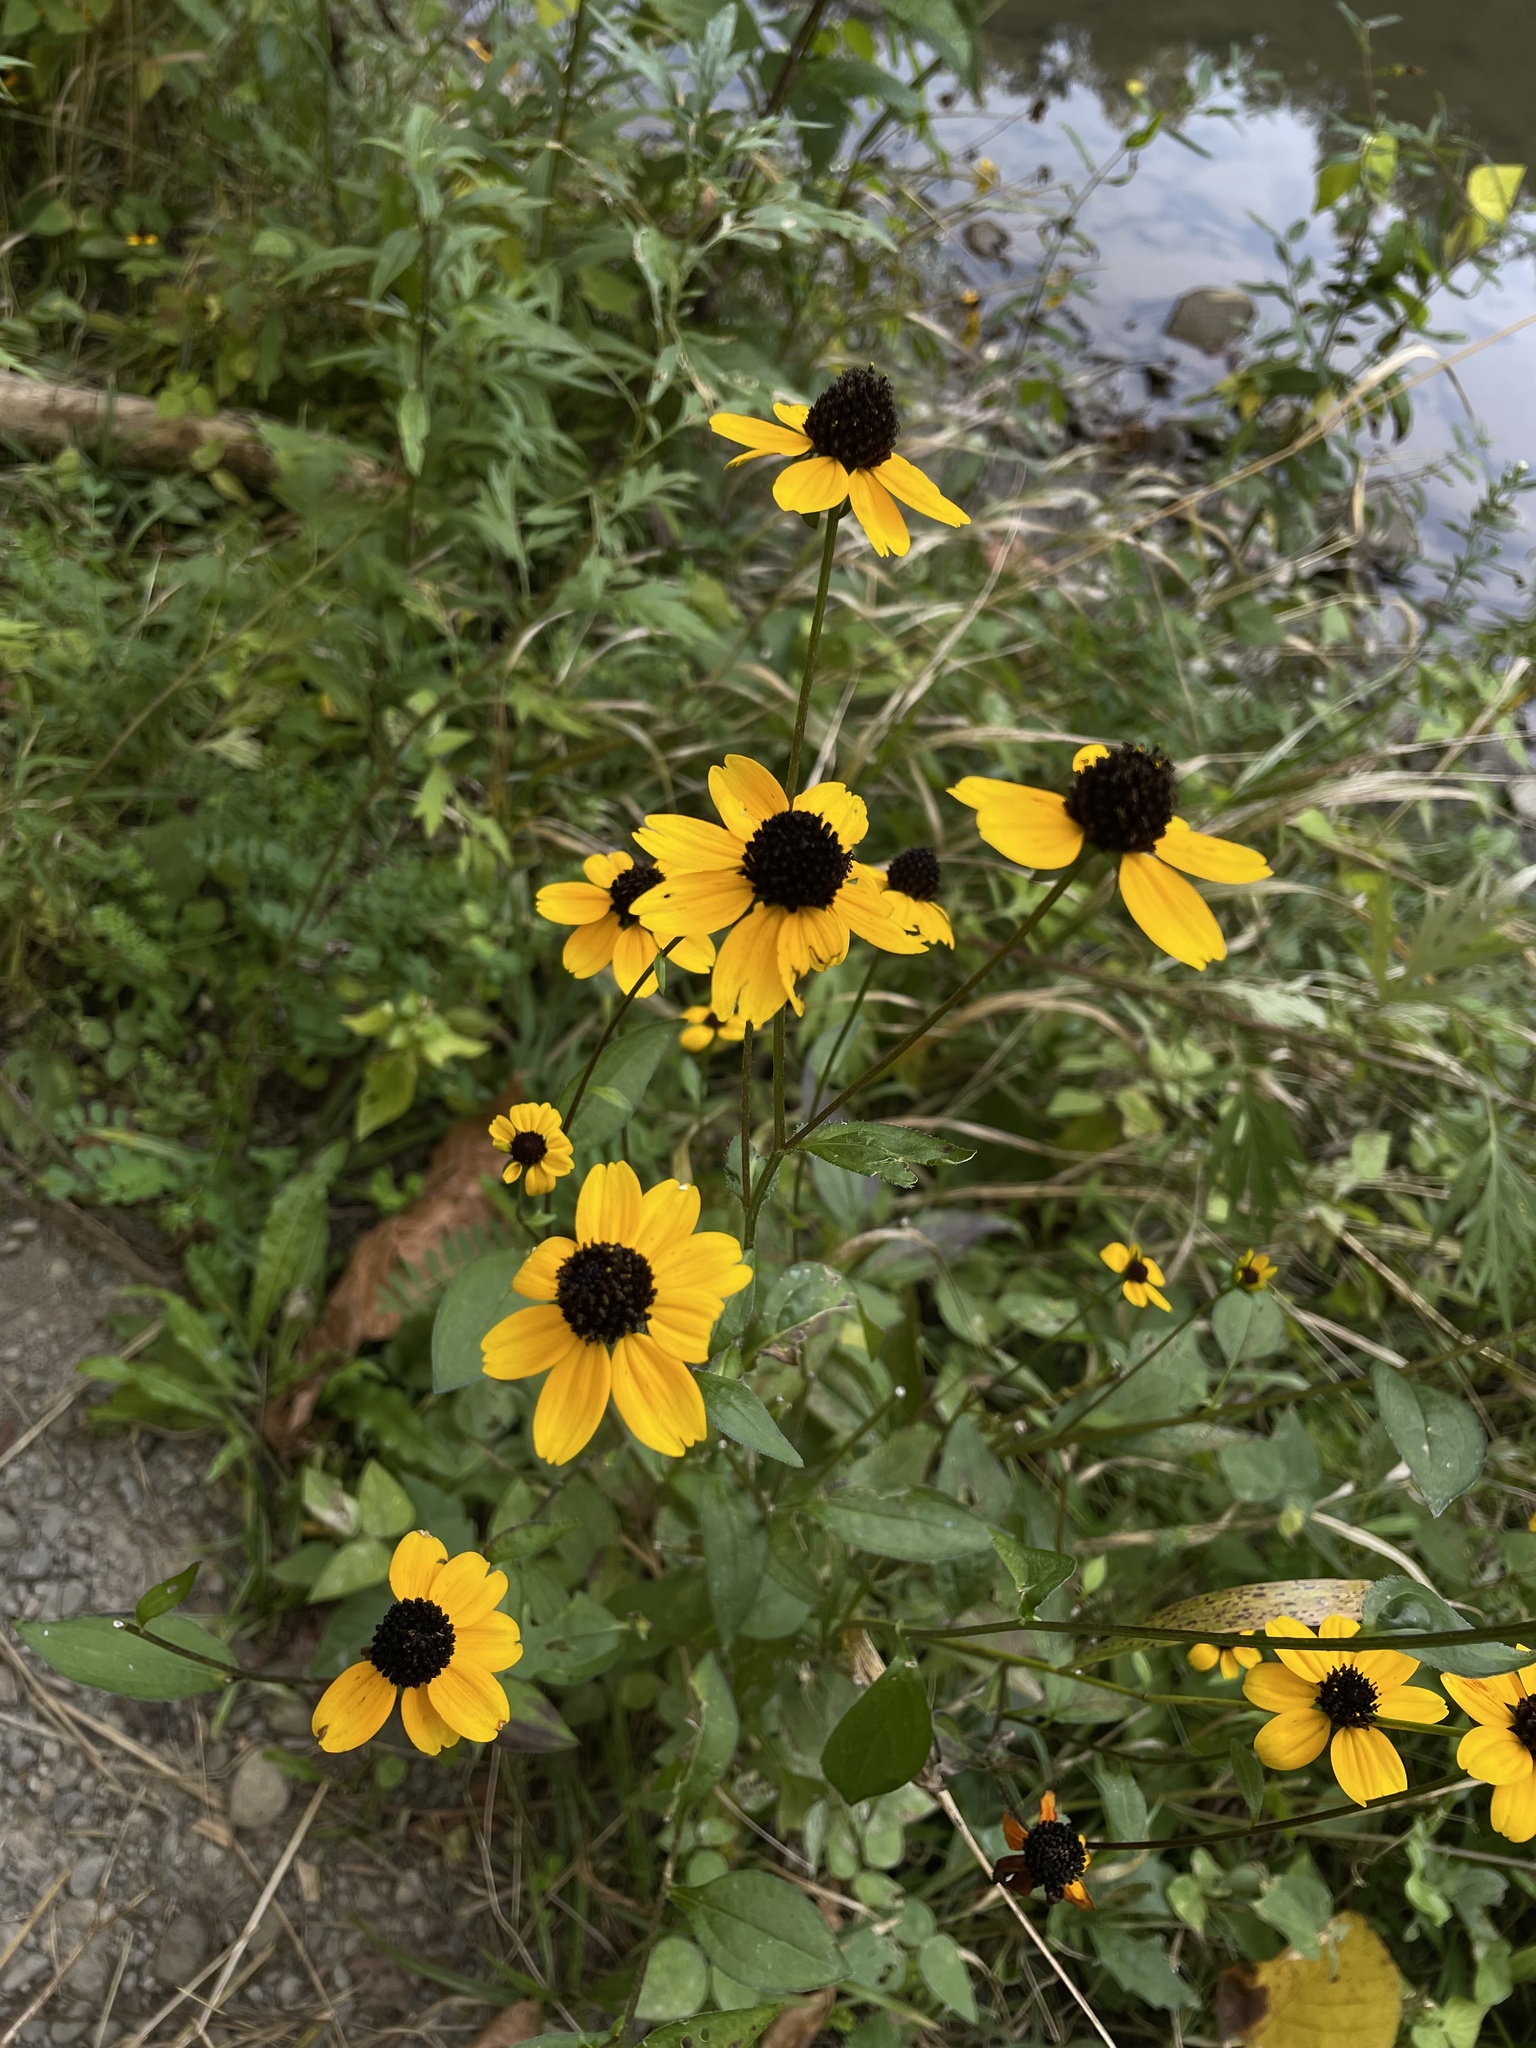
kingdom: Plantae
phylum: Tracheophyta
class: Magnoliopsida
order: Asterales
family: Asteraceae
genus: Rudbeckia
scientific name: Rudbeckia triloba
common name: Thin-leaved coneflower
